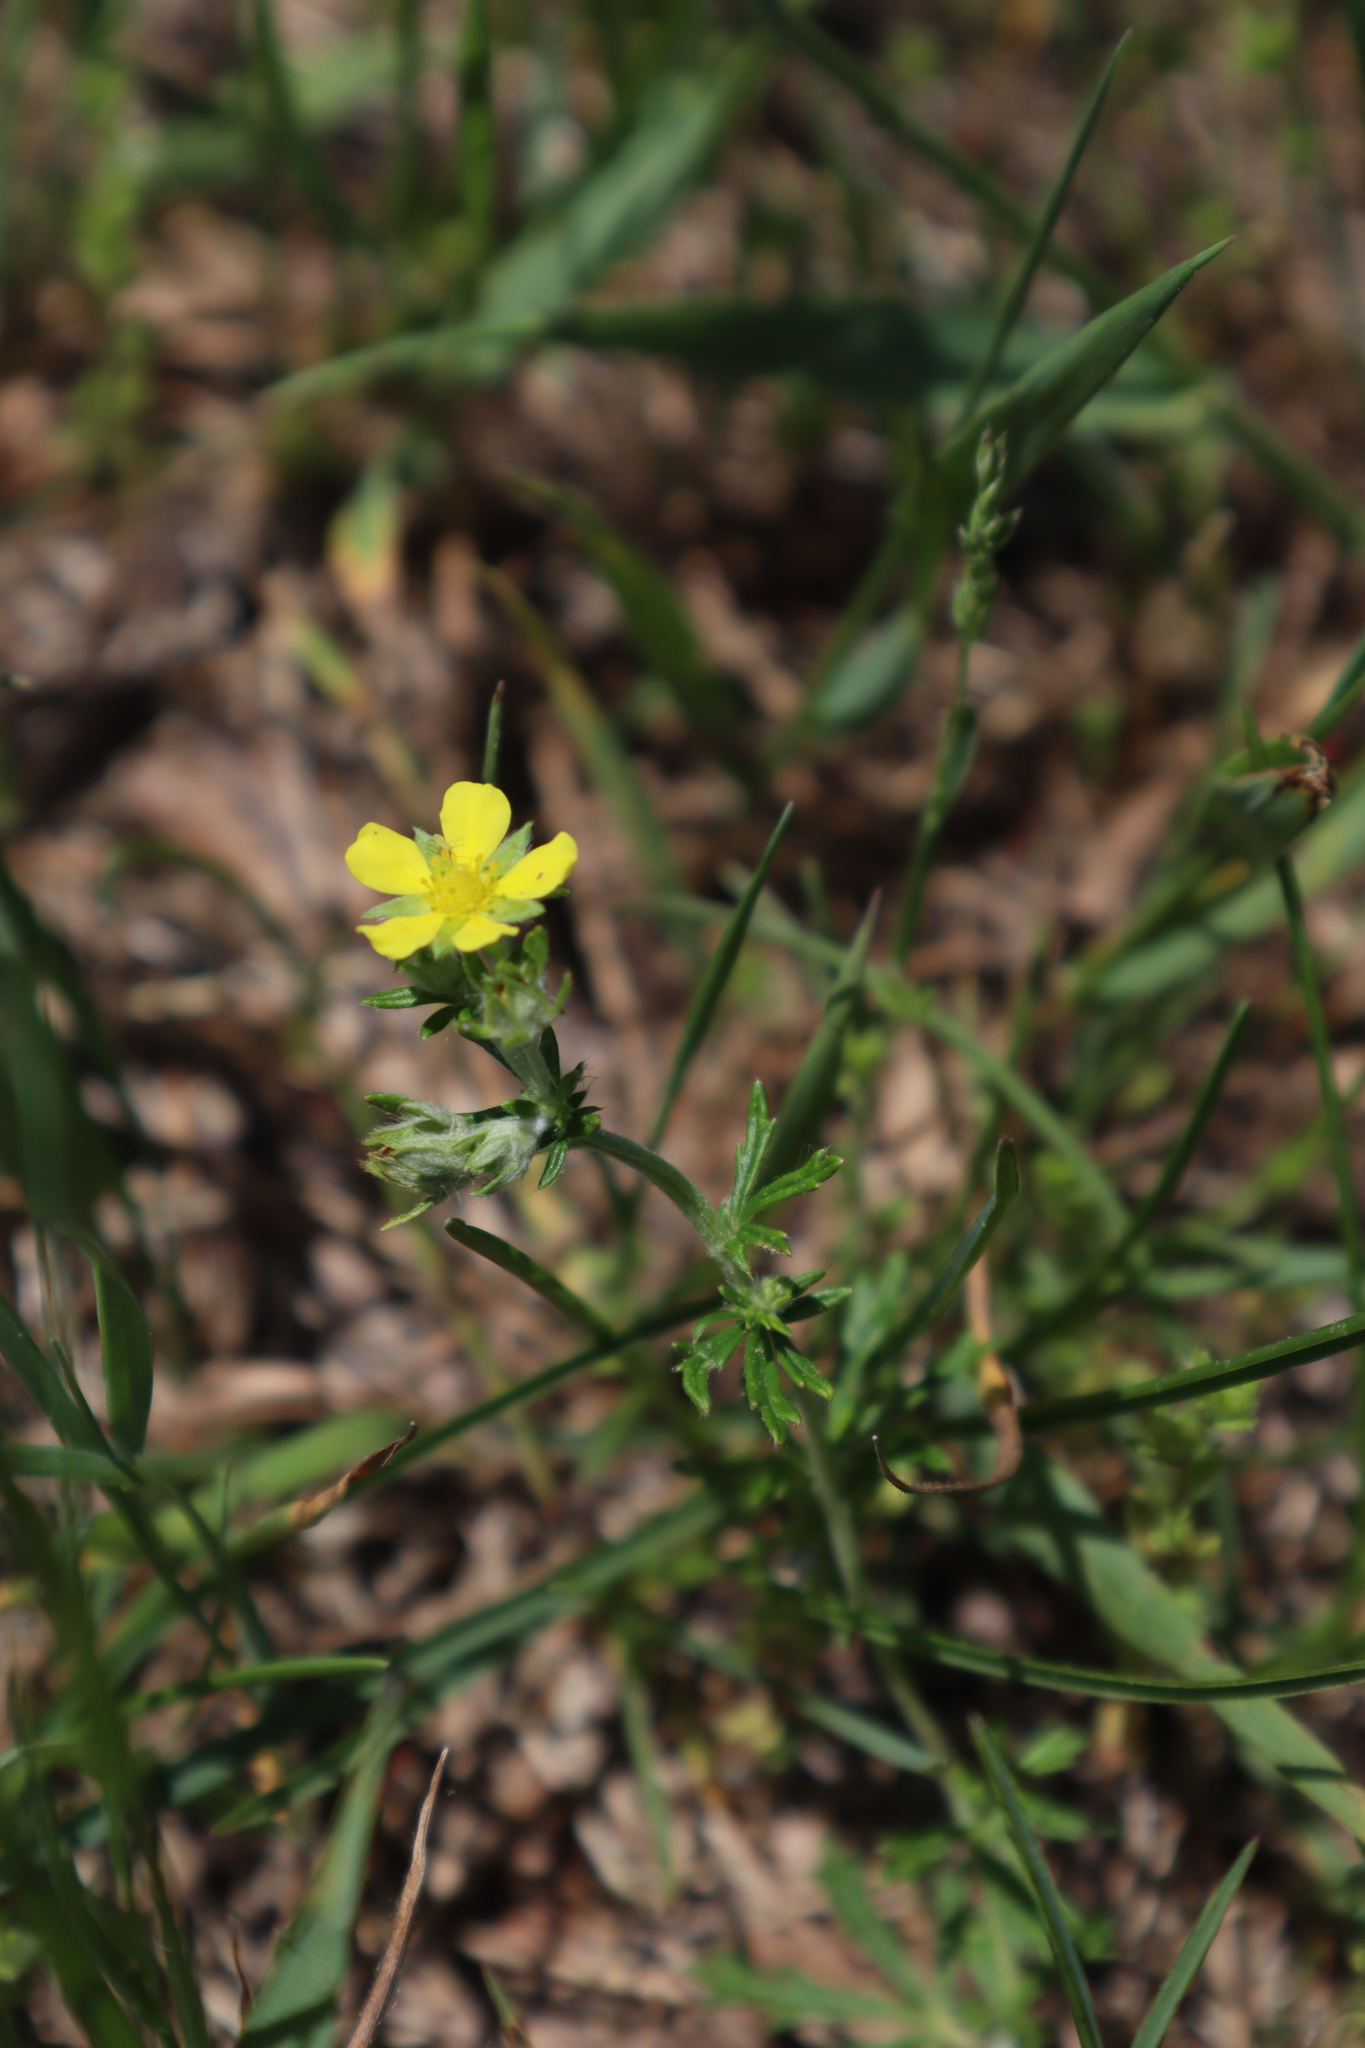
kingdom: Plantae
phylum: Tracheophyta
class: Magnoliopsida
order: Rosales
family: Rosaceae
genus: Potentilla
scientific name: Potentilla argentea
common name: Hoary cinquefoil
